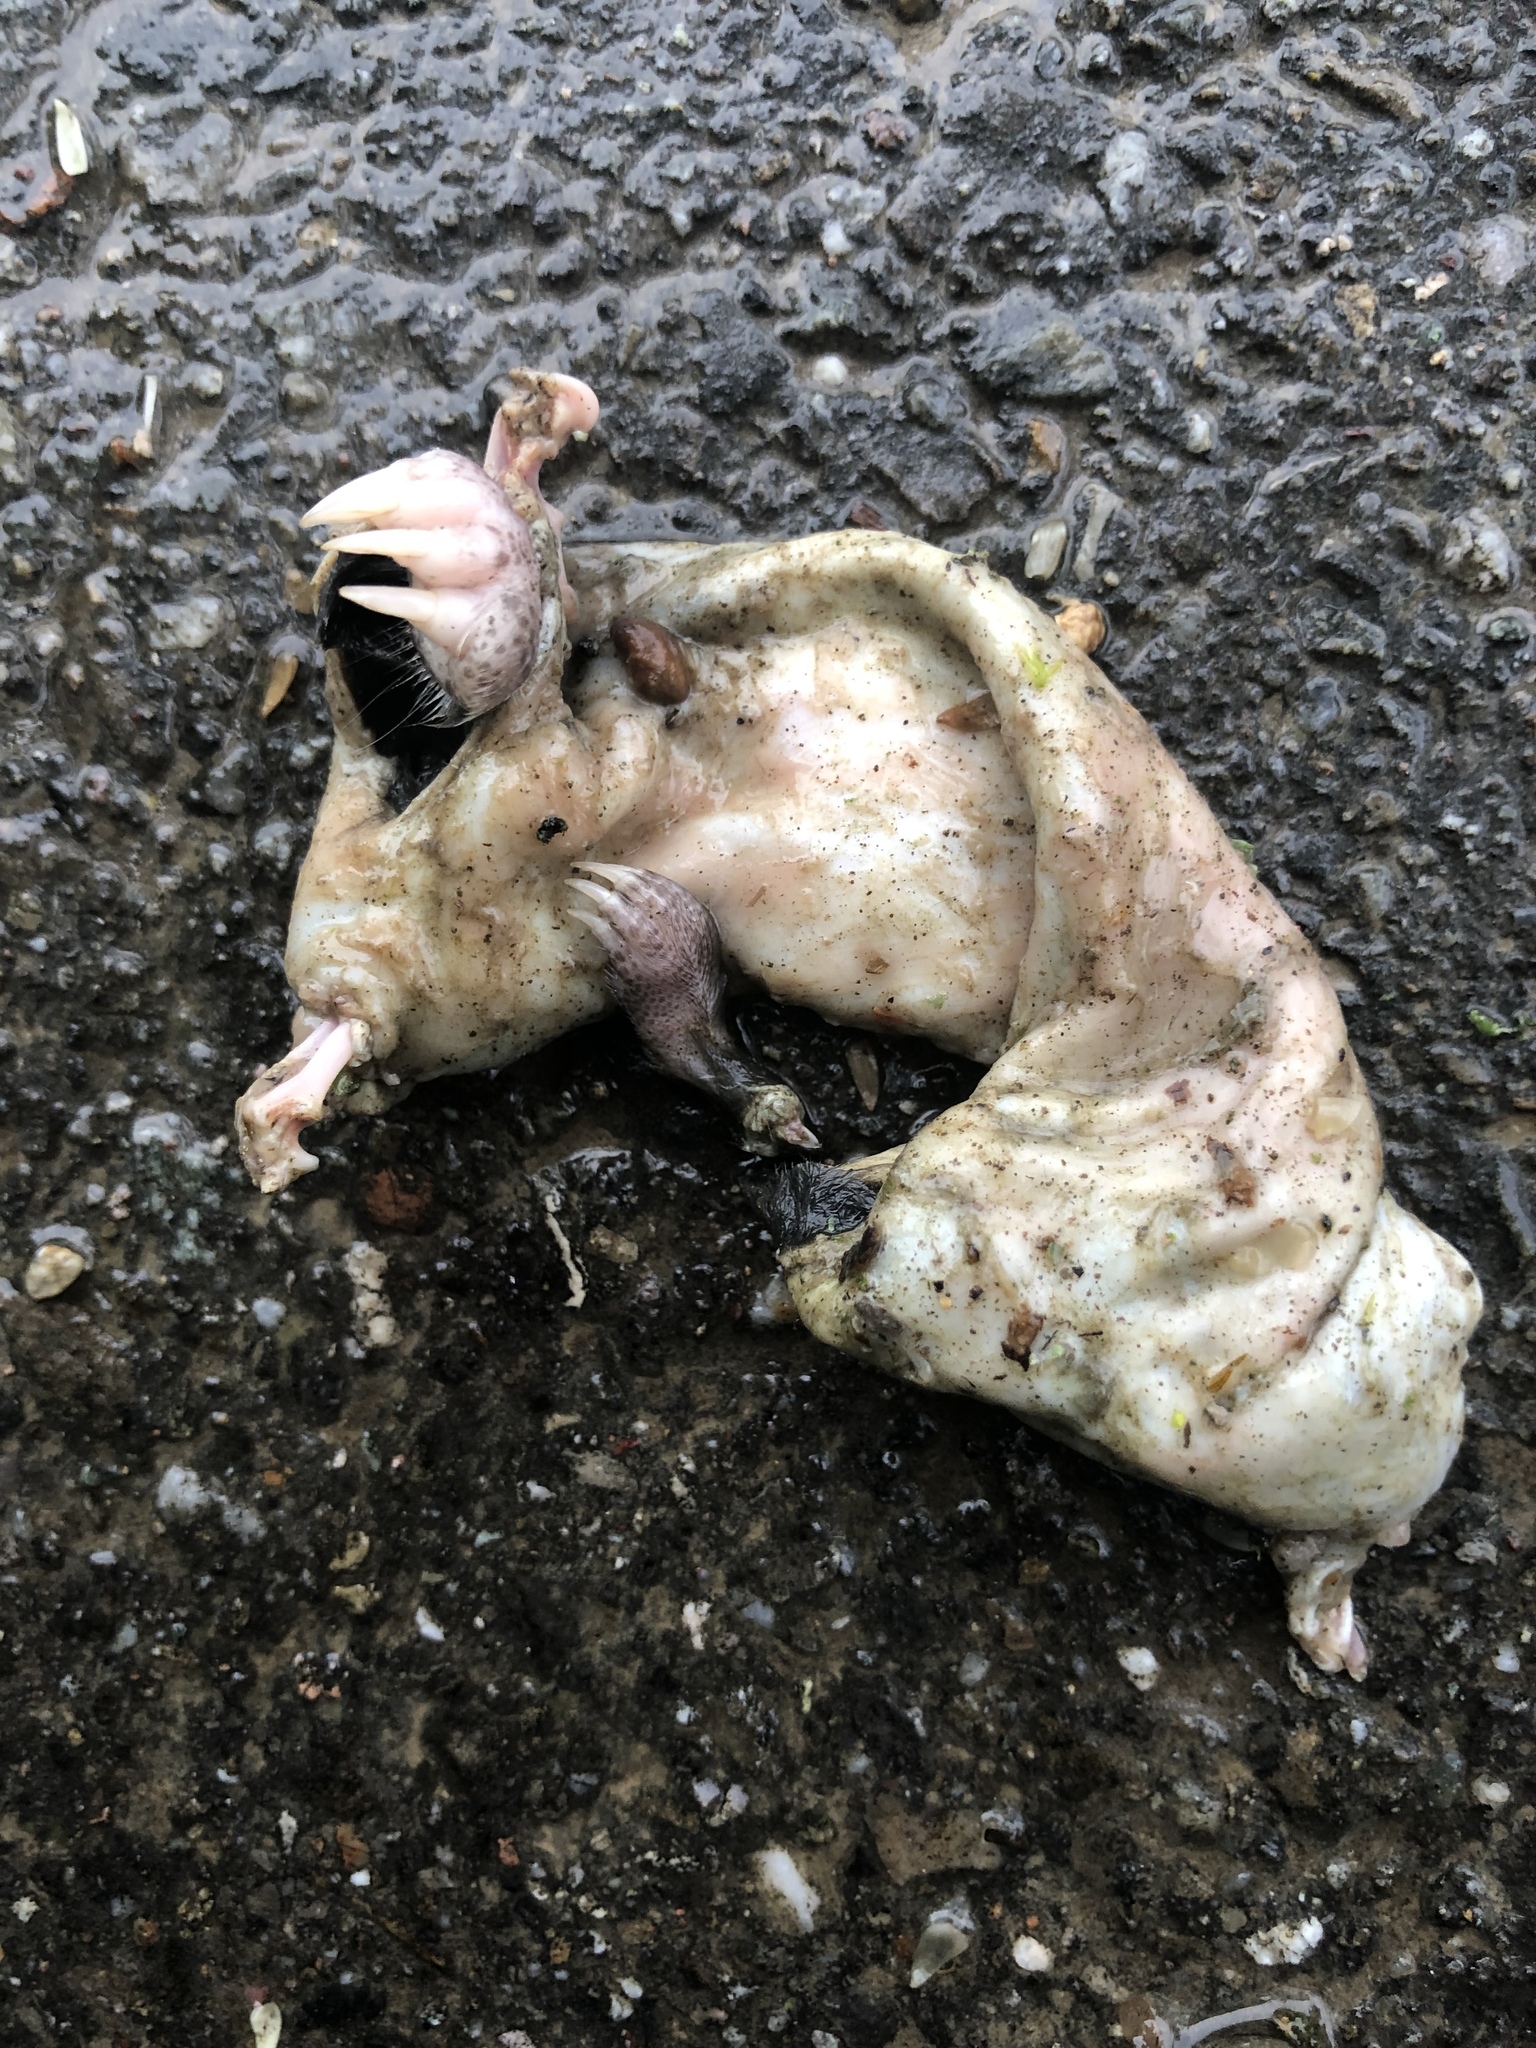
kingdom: Animalia
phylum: Chordata
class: Mammalia
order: Soricomorpha
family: Talpidae
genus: Talpa
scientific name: Talpa europaea
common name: European mole
